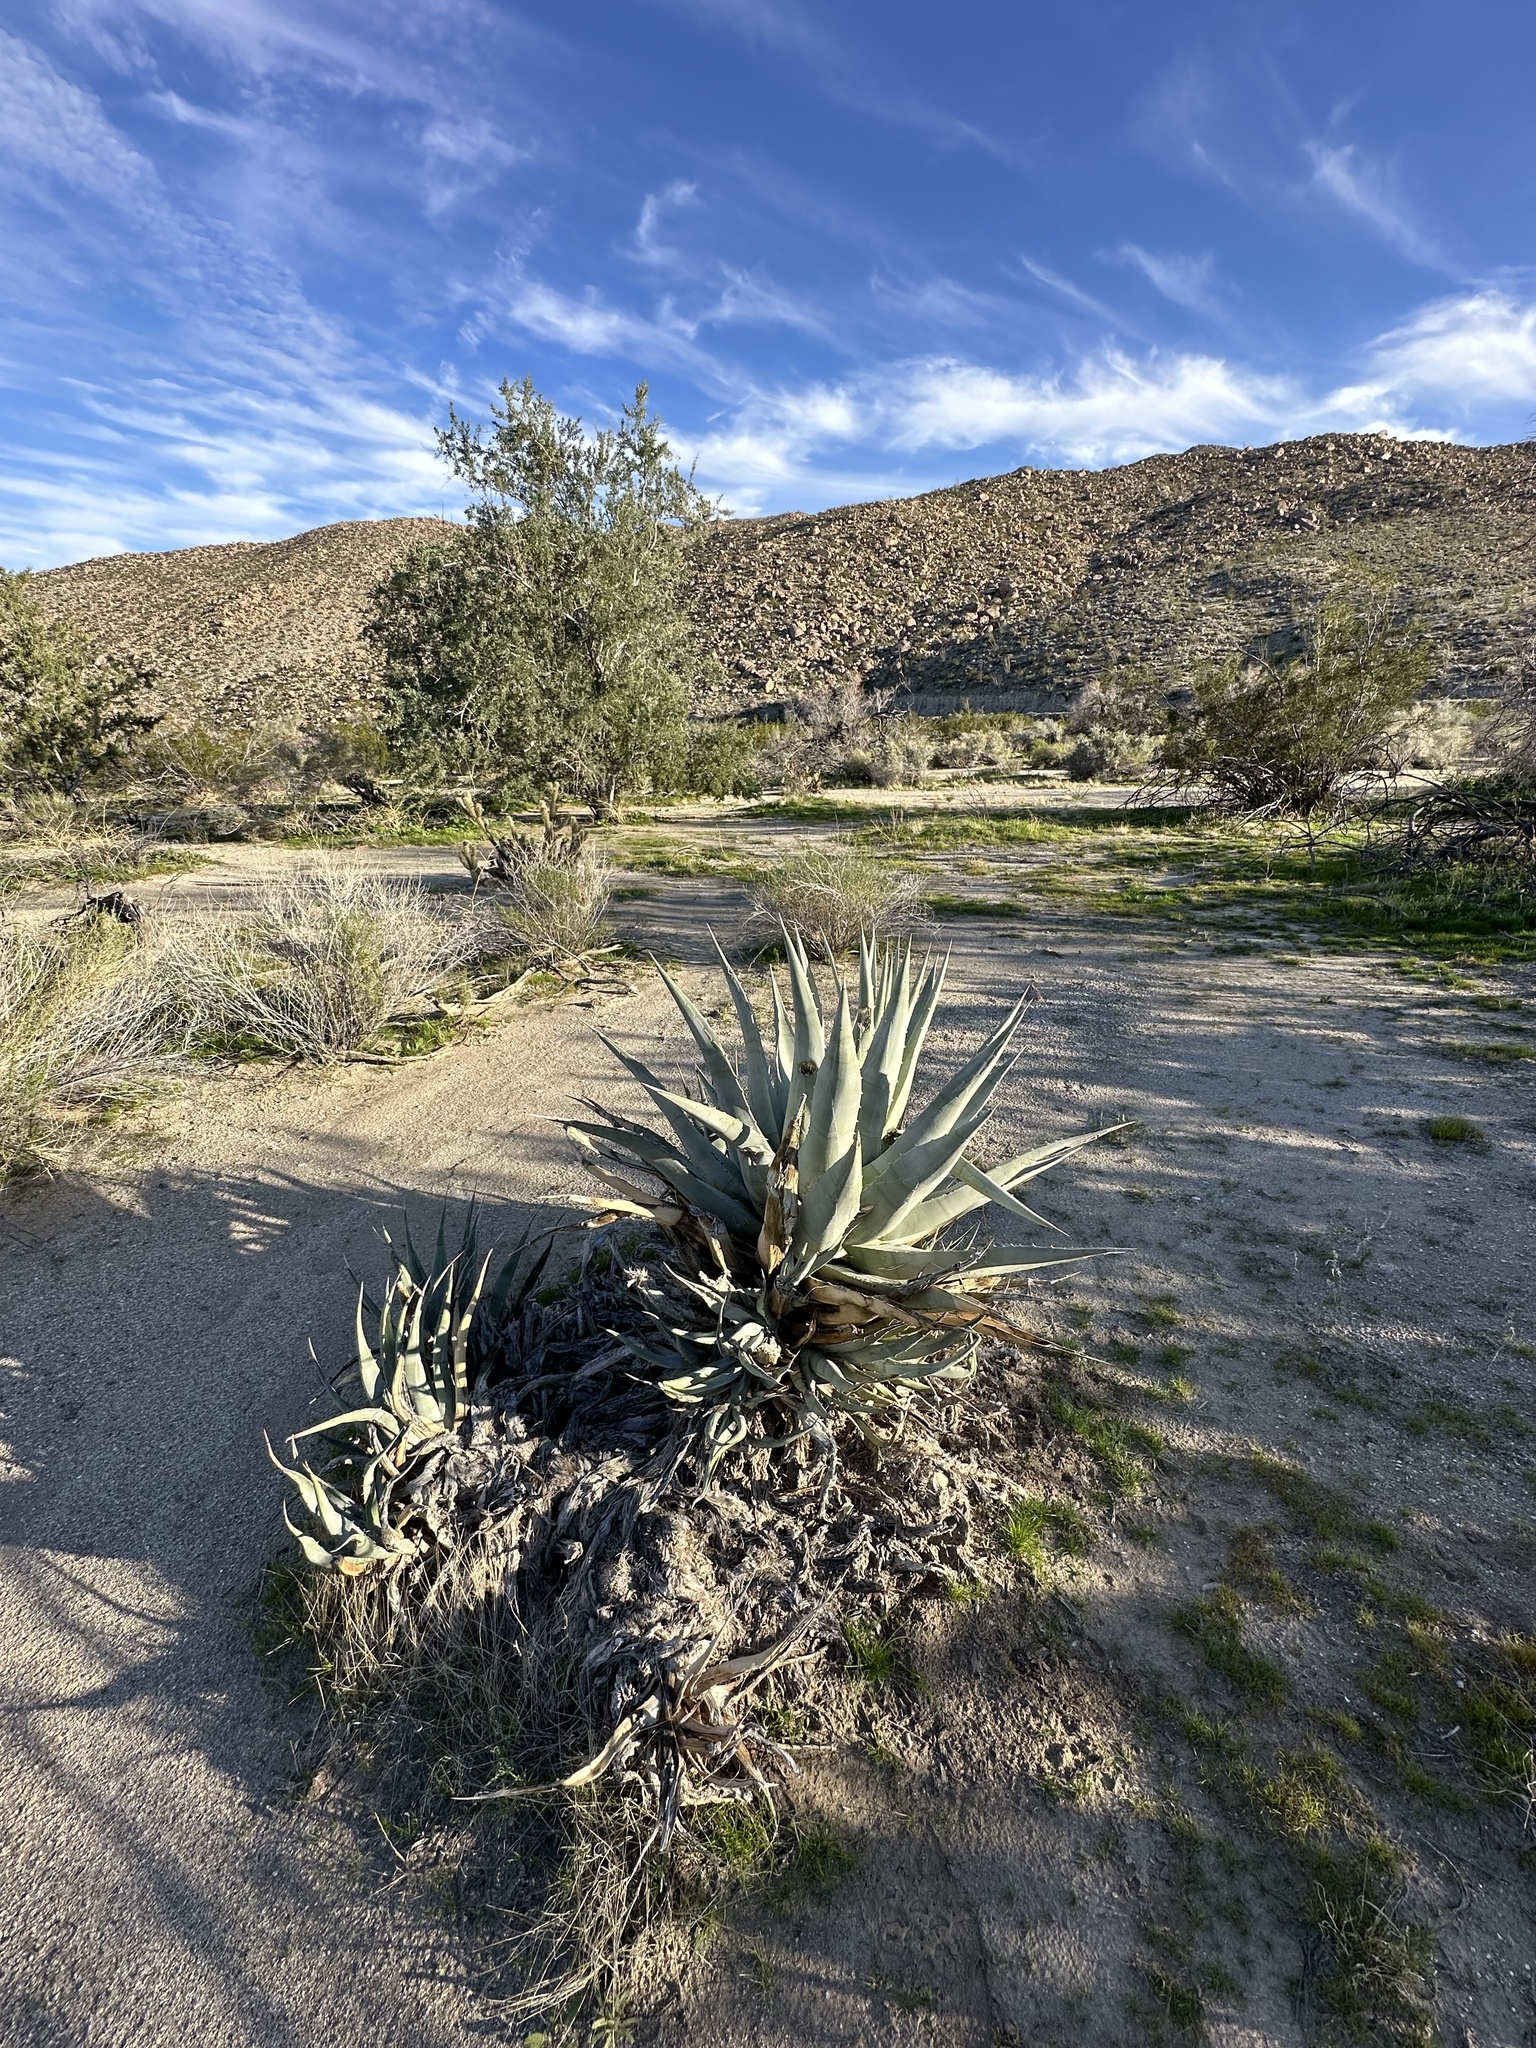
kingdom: Plantae
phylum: Tracheophyta
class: Liliopsida
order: Asparagales
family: Asparagaceae
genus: Agave
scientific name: Agave deserti
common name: Desert agave
